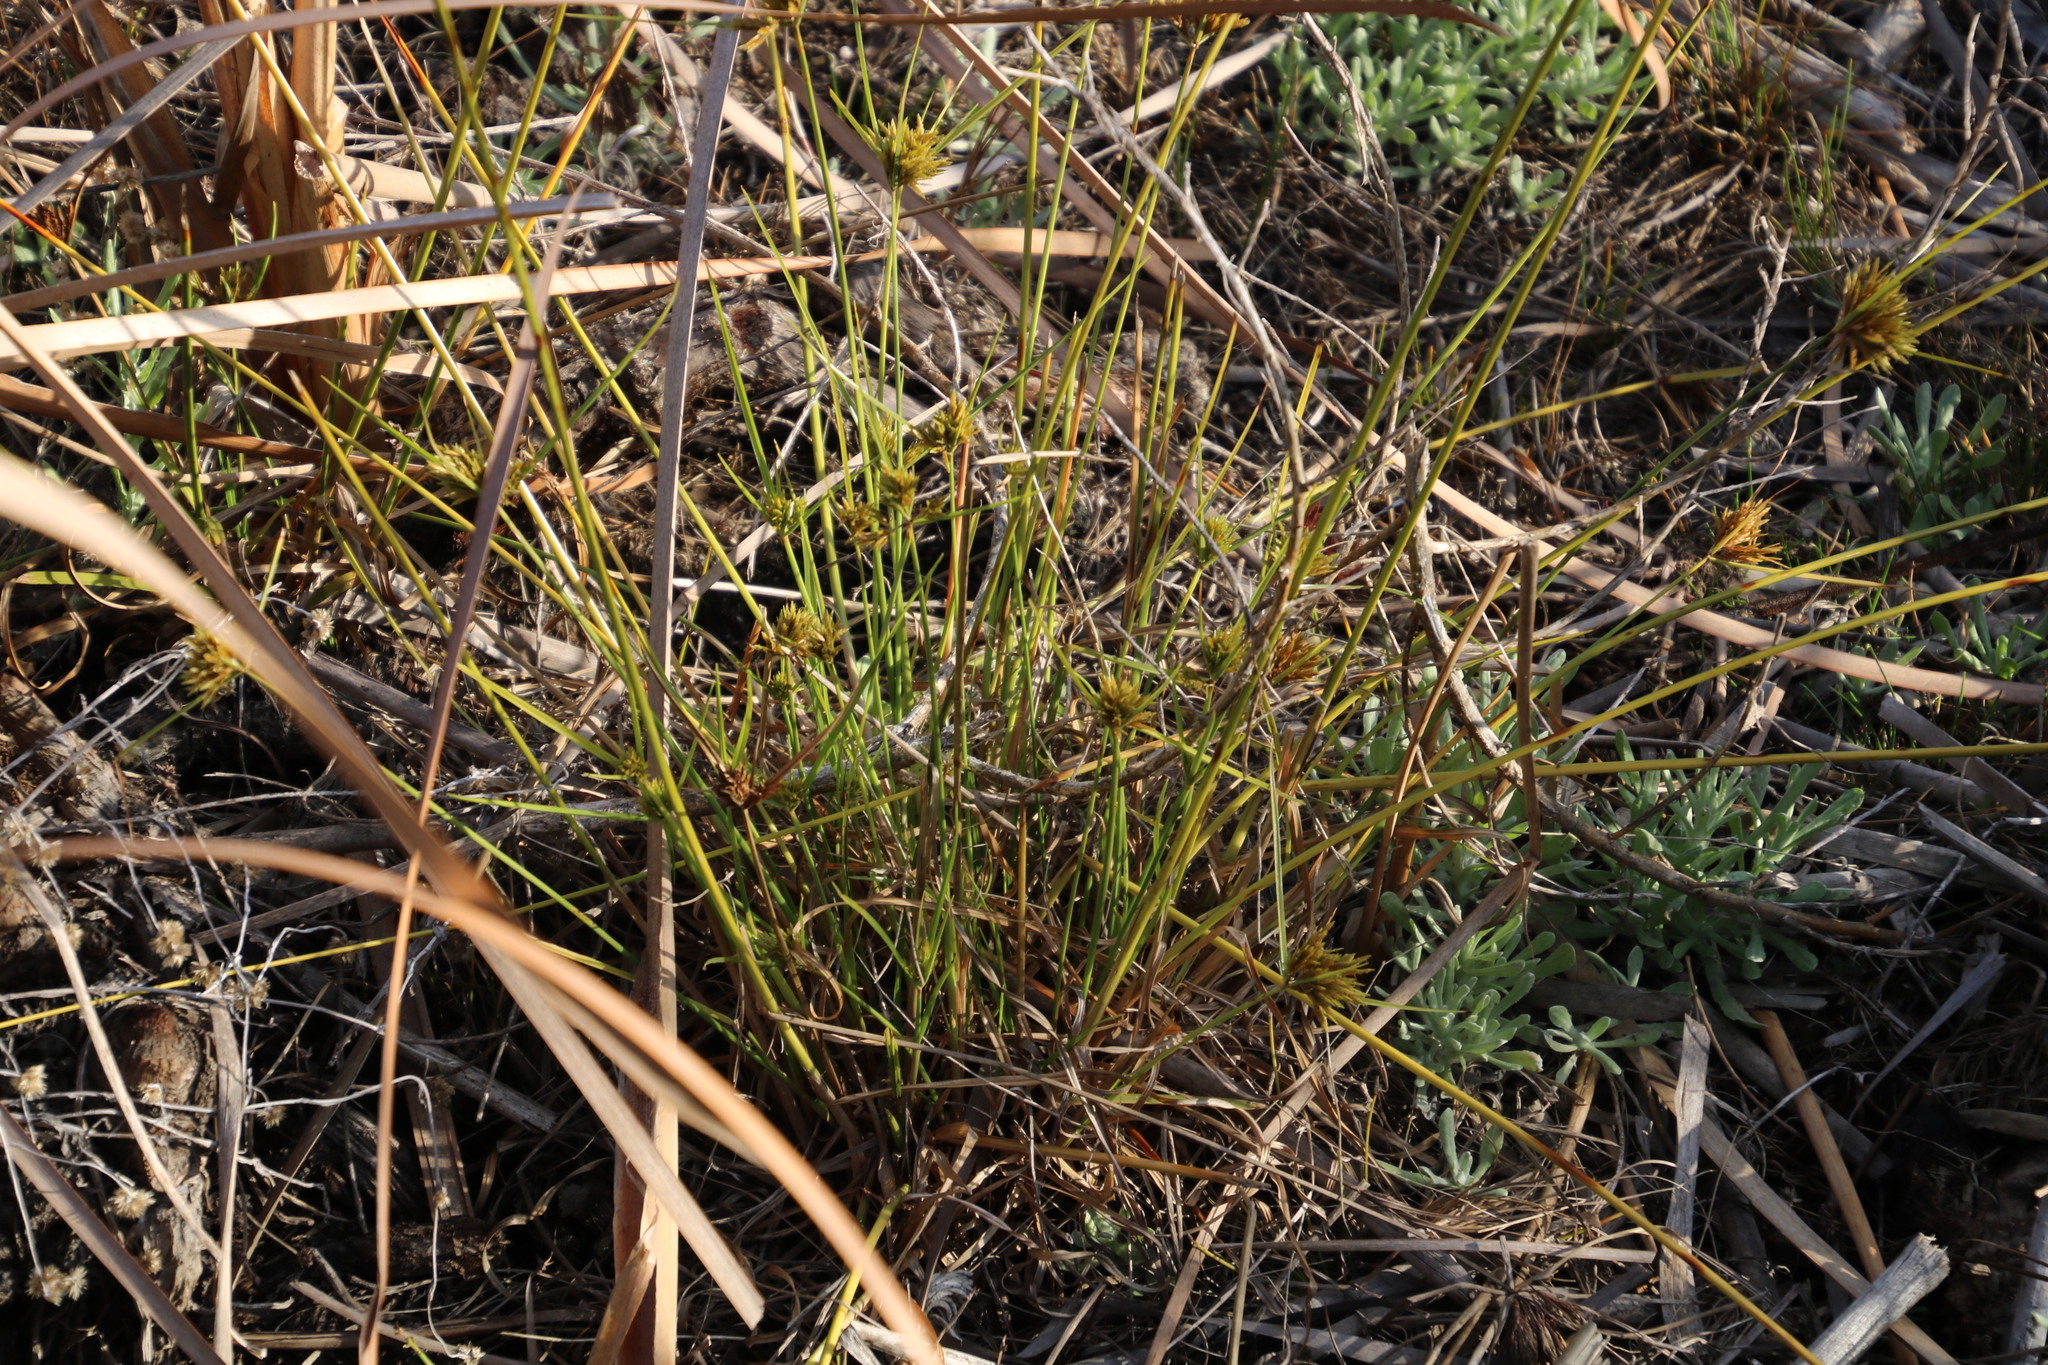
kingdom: Plantae
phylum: Tracheophyta
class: Liliopsida
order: Poales
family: Cyperaceae
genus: Cyperus
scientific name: Cyperus polystachyos
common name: Bunchy flat sedge
